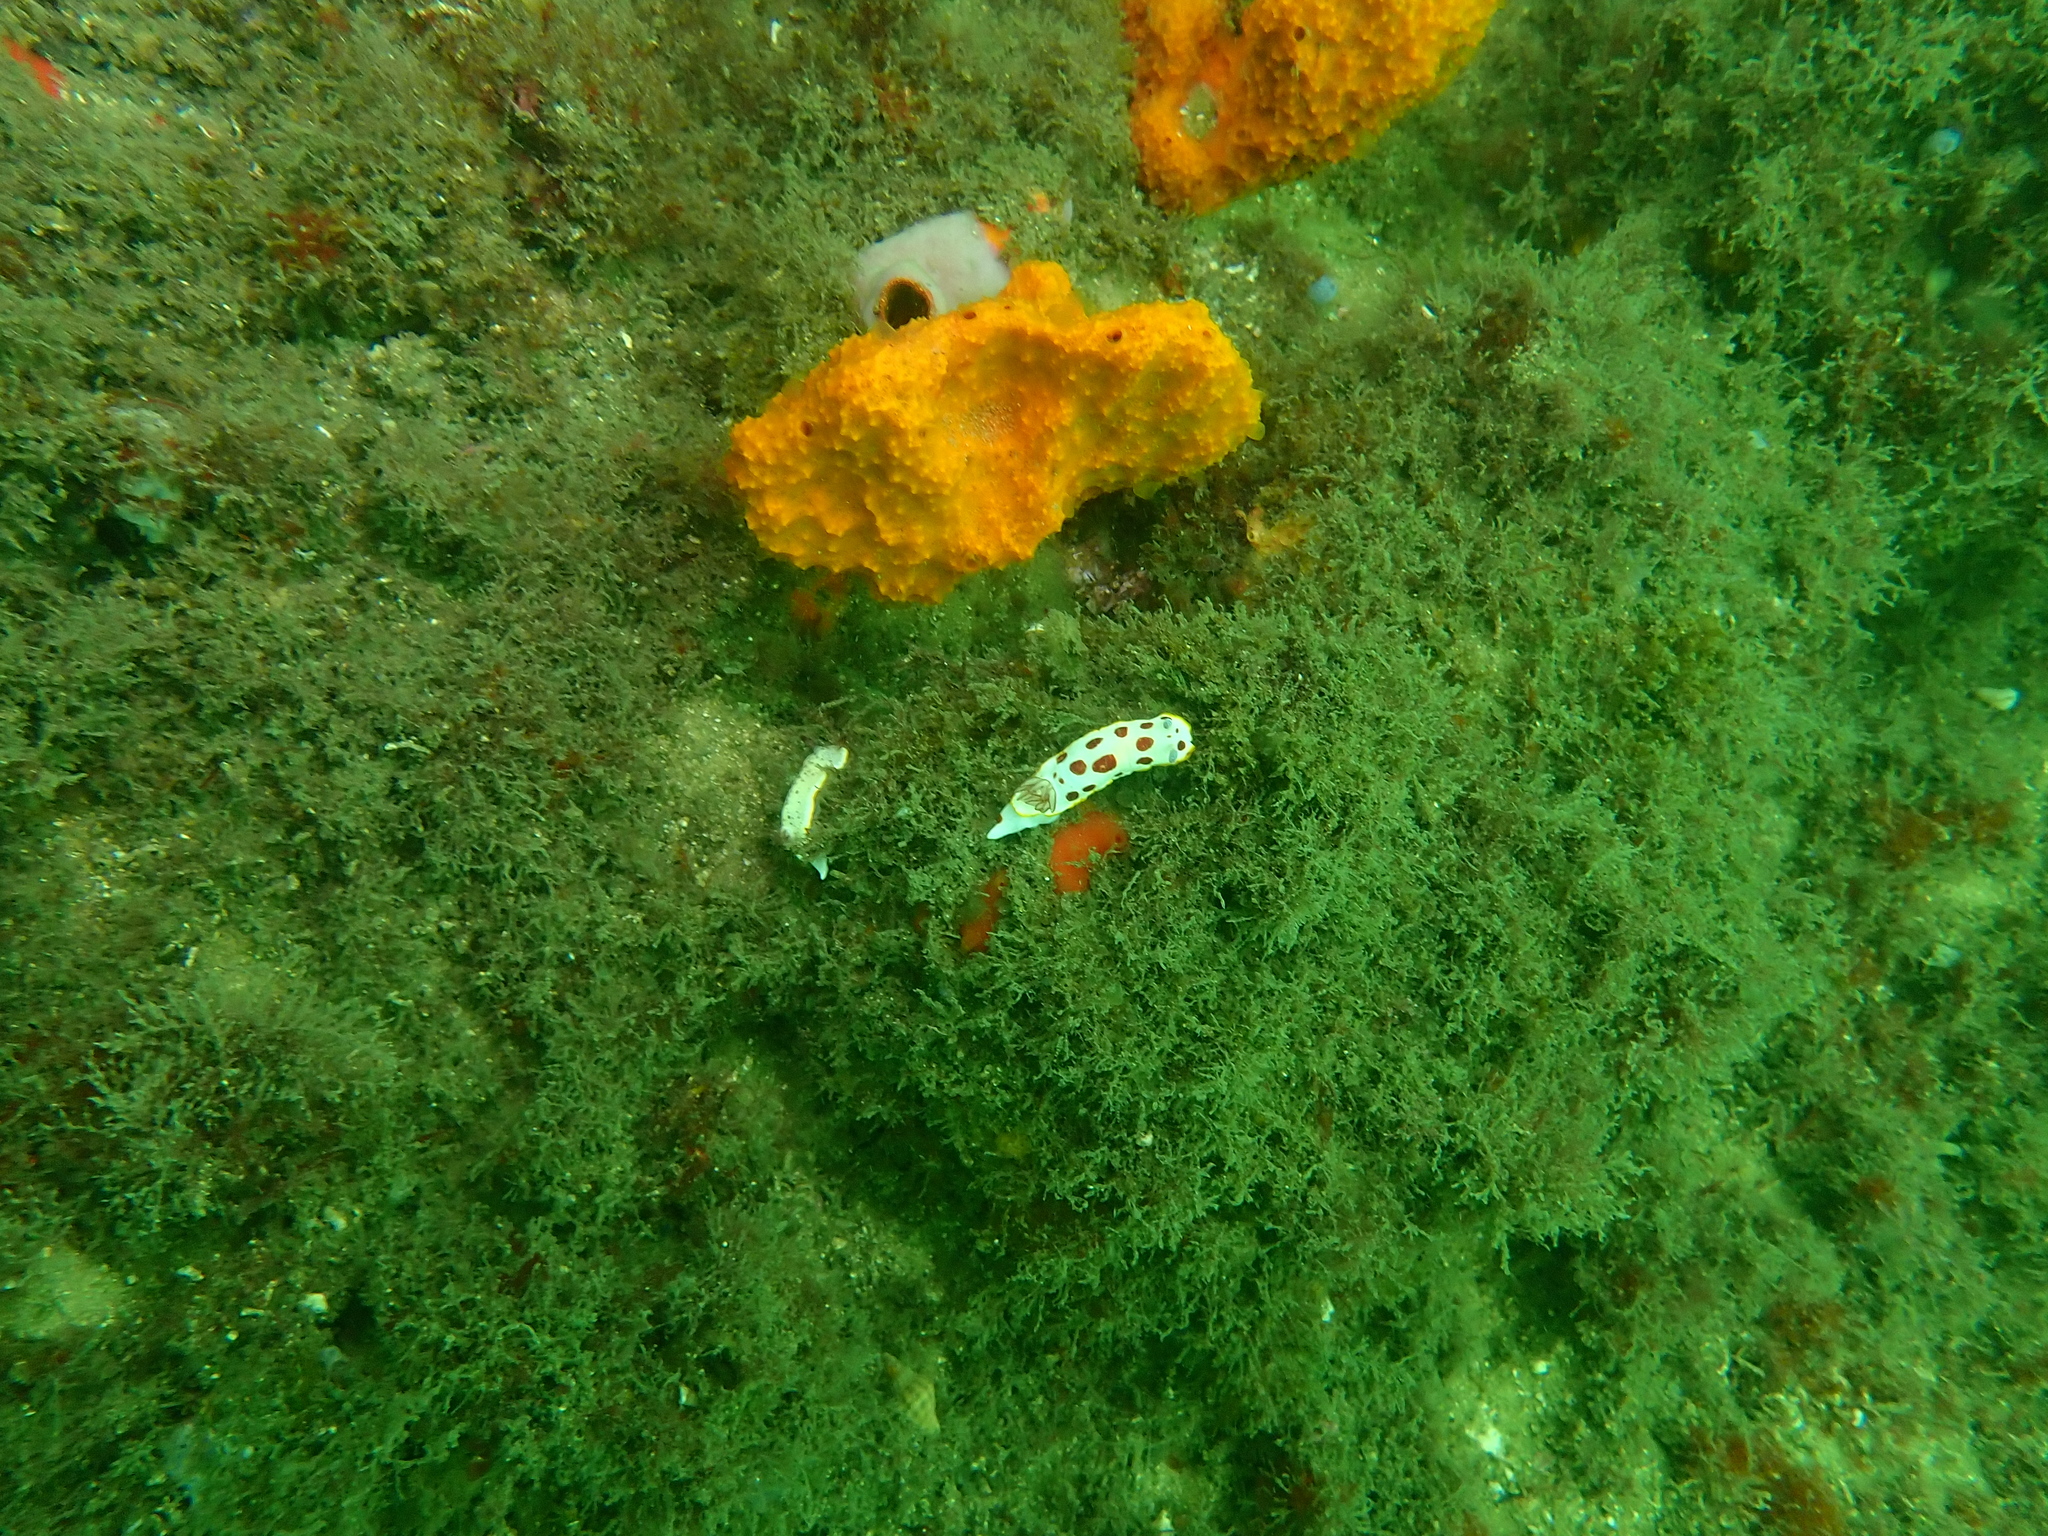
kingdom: Animalia
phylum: Mollusca
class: Gastropoda
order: Nudibranchia
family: Chromodorididae
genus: Goniobranchus
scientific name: Goniobranchus splendidus
